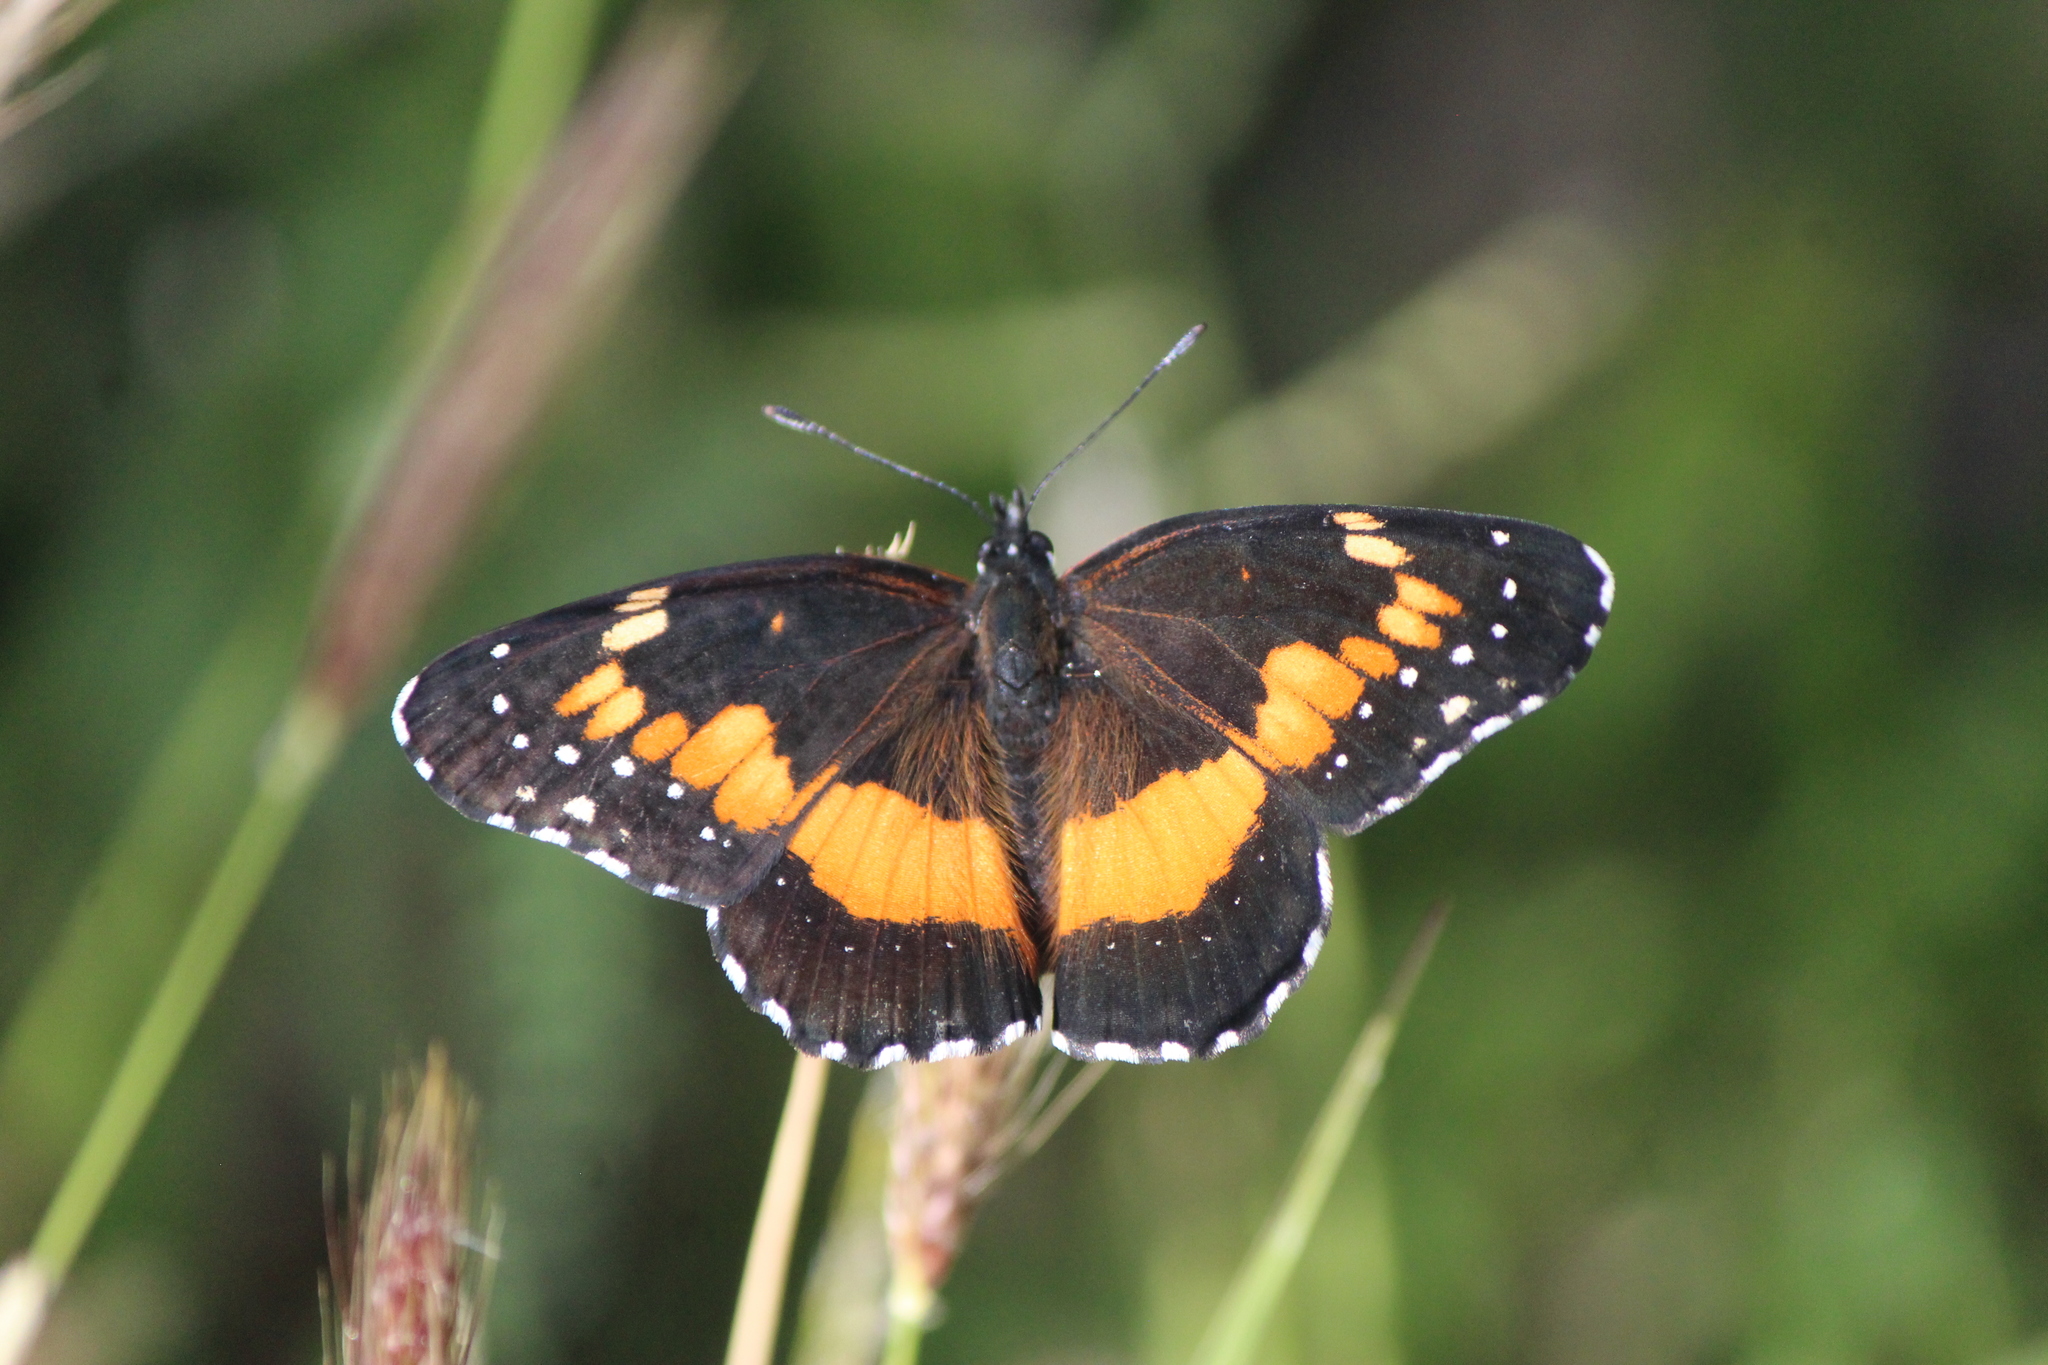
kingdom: Animalia
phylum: Arthropoda
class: Insecta
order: Lepidoptera
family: Nymphalidae
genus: Chlosyne
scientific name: Chlosyne lacinia
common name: Bordered patch
